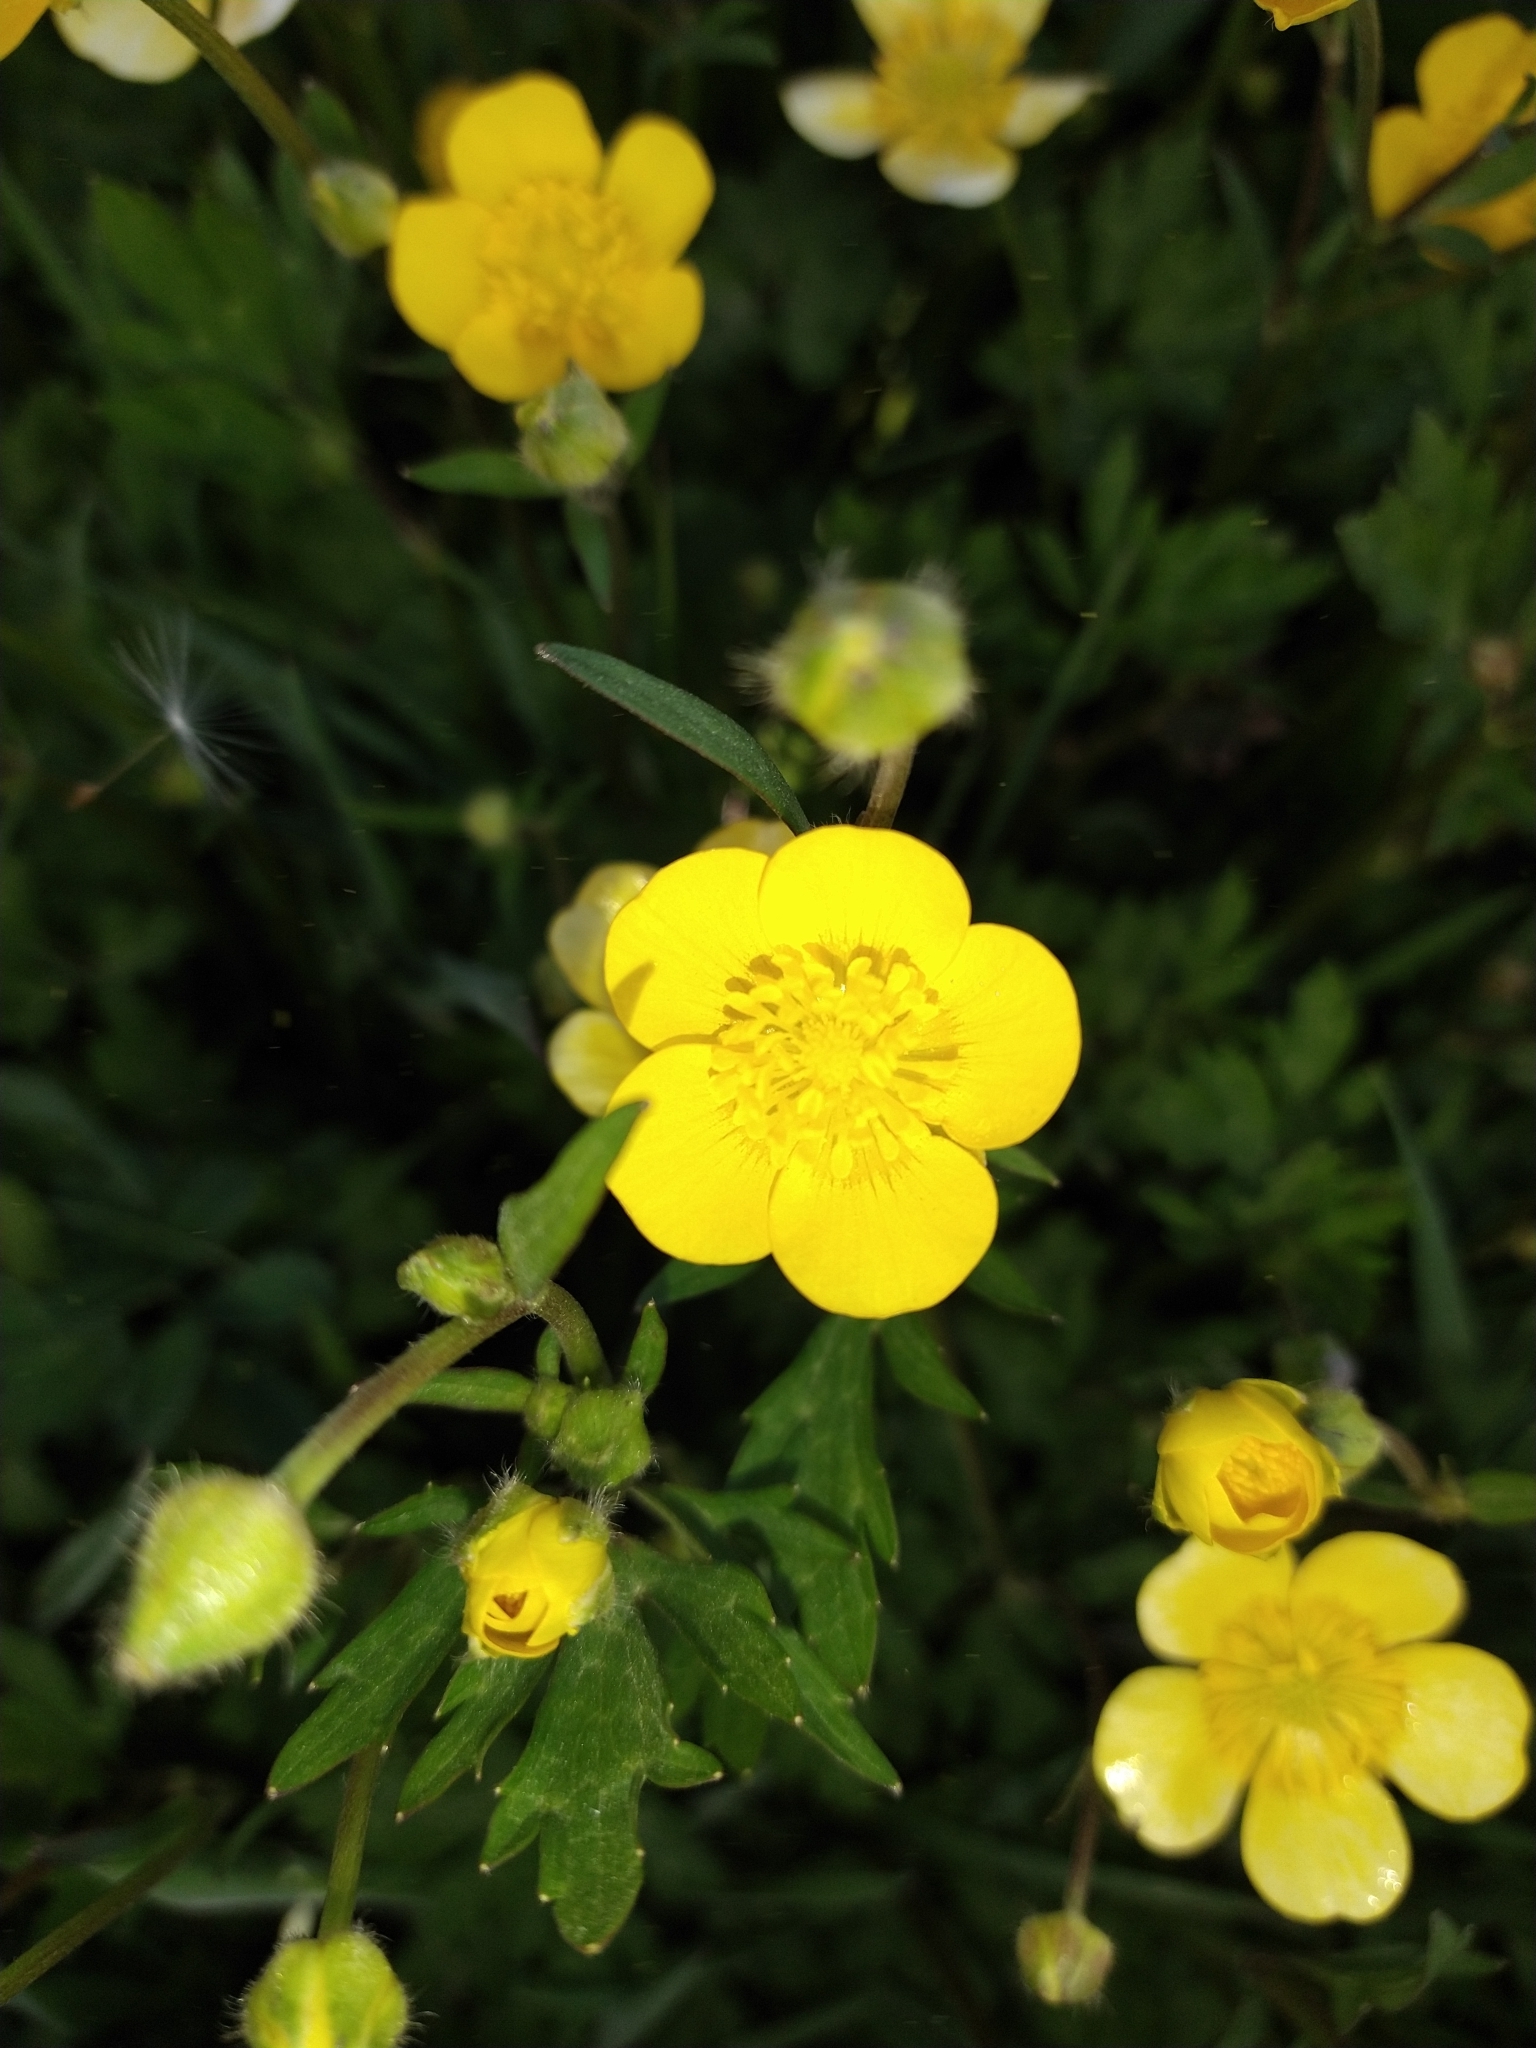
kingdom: Plantae
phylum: Tracheophyta
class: Magnoliopsida
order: Ranunculales
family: Ranunculaceae
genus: Ranunculus
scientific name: Ranunculus repens
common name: Creeping buttercup
